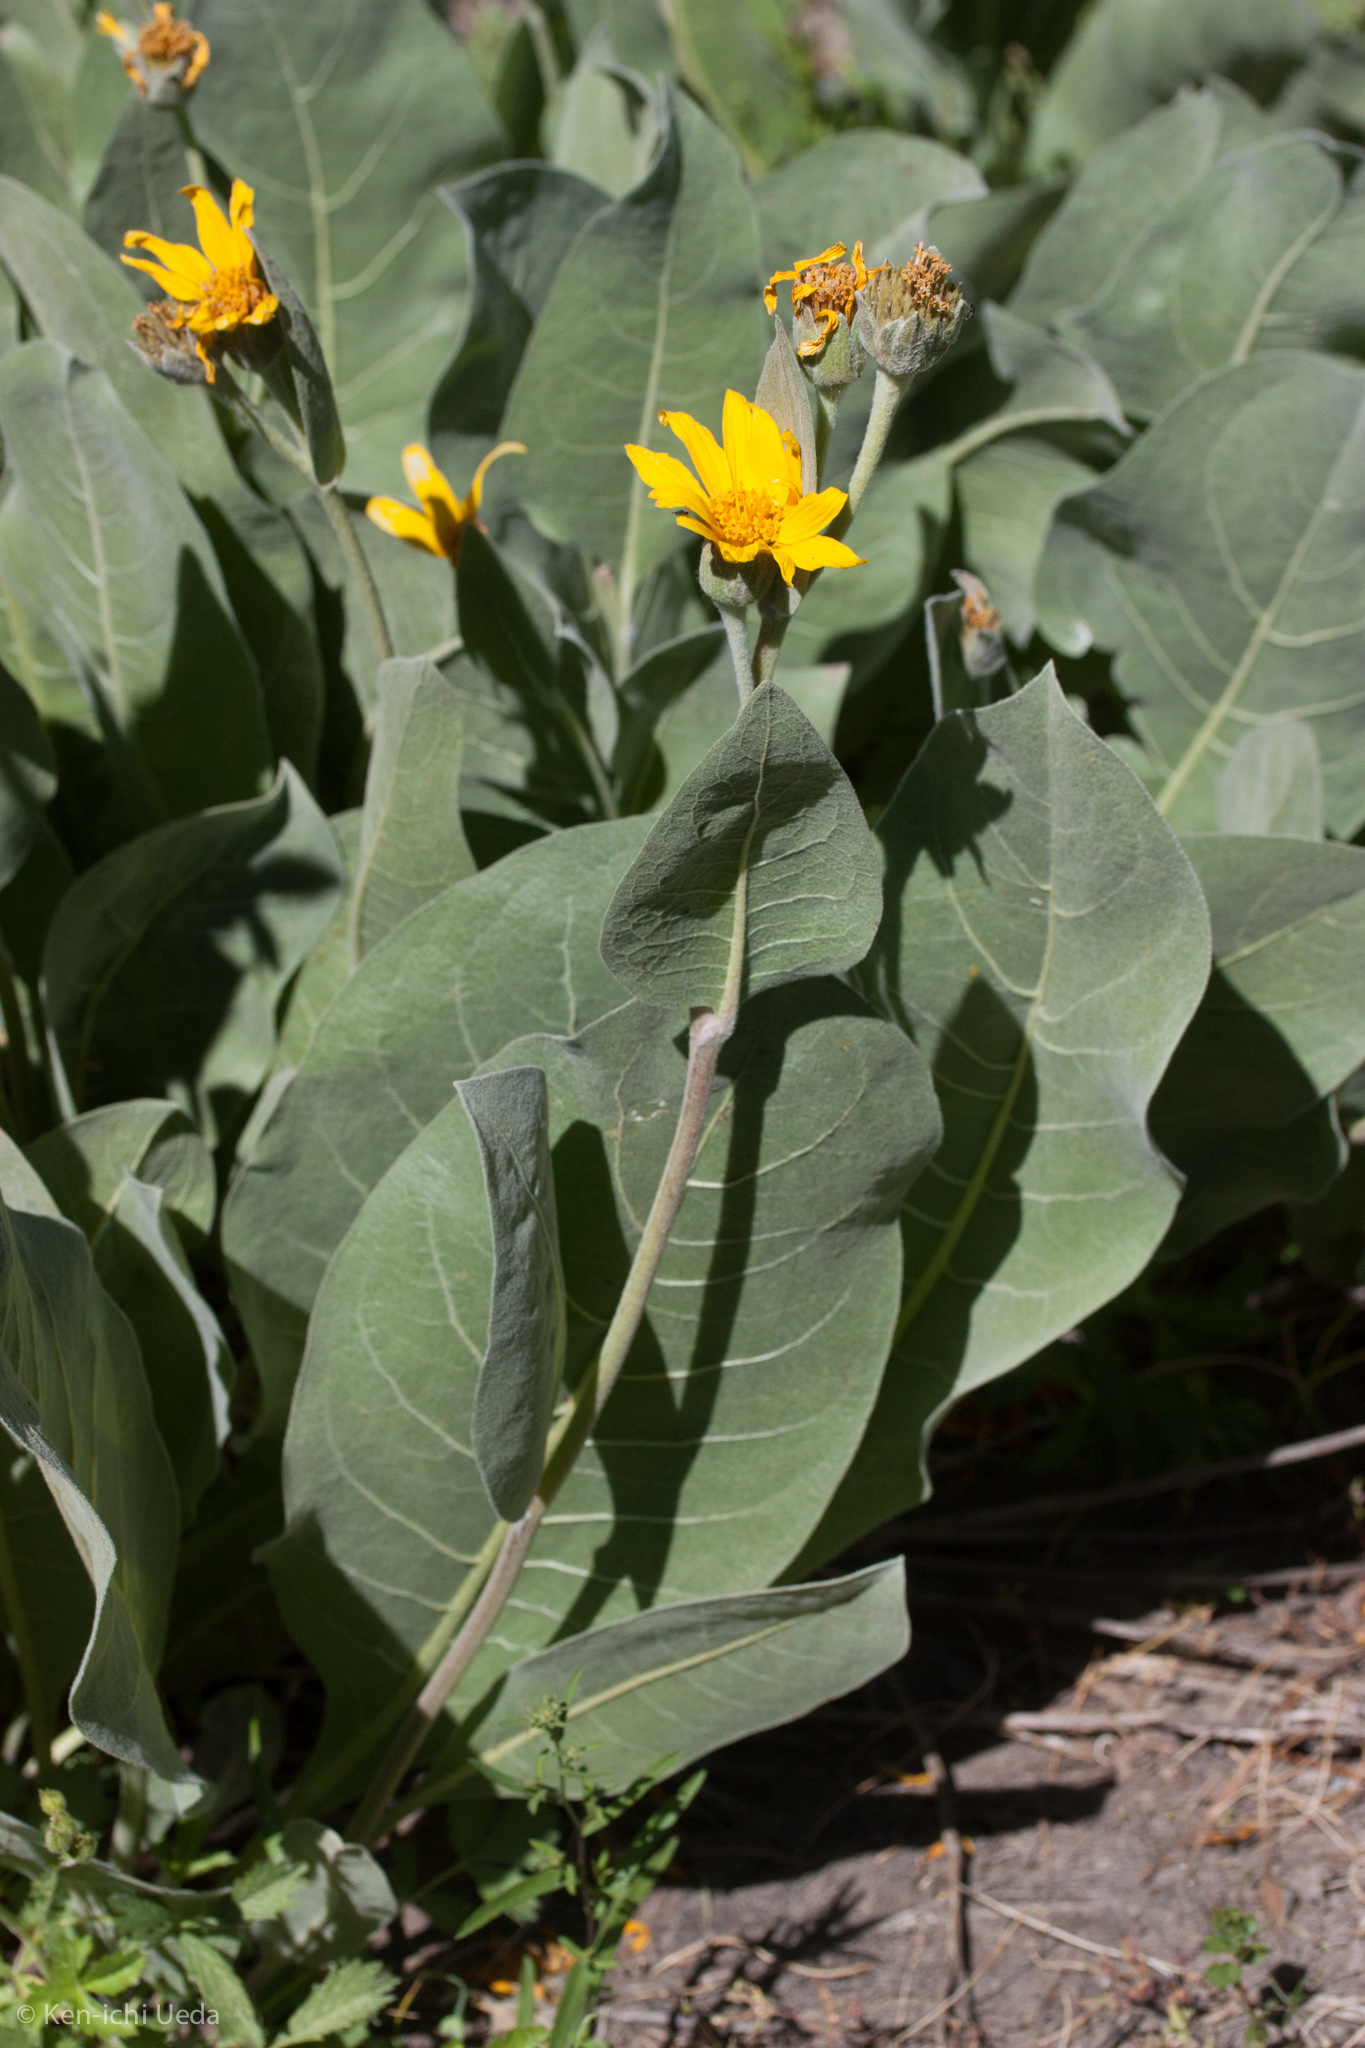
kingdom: Plantae
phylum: Tracheophyta
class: Magnoliopsida
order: Asterales
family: Asteraceae
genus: Wyethia
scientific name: Wyethia mollis
